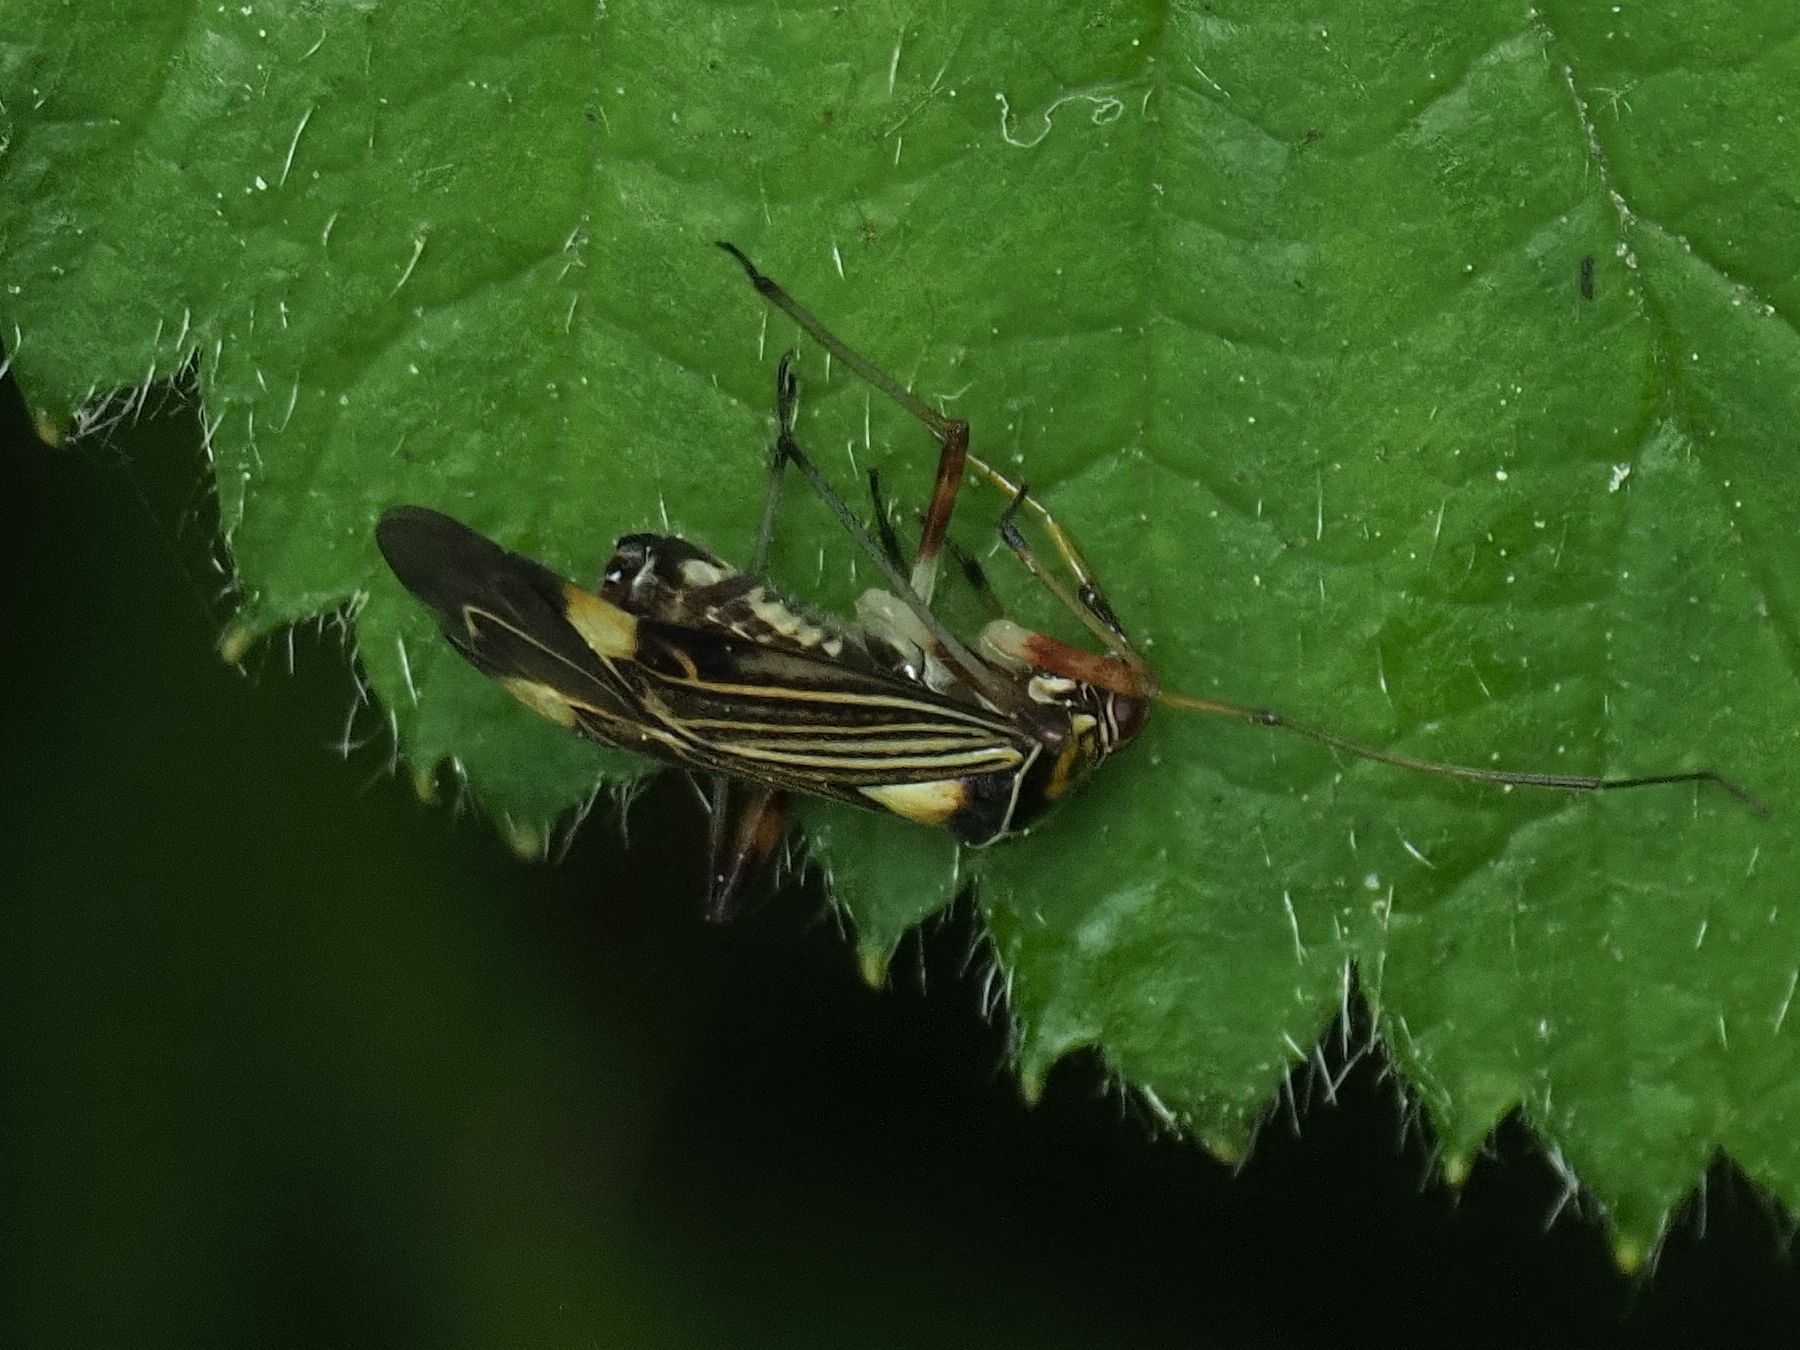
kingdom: Animalia
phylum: Arthropoda
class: Insecta
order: Hemiptera
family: Miridae
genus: Rhabdomiris
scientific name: Rhabdomiris striatellus
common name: Plant bug
